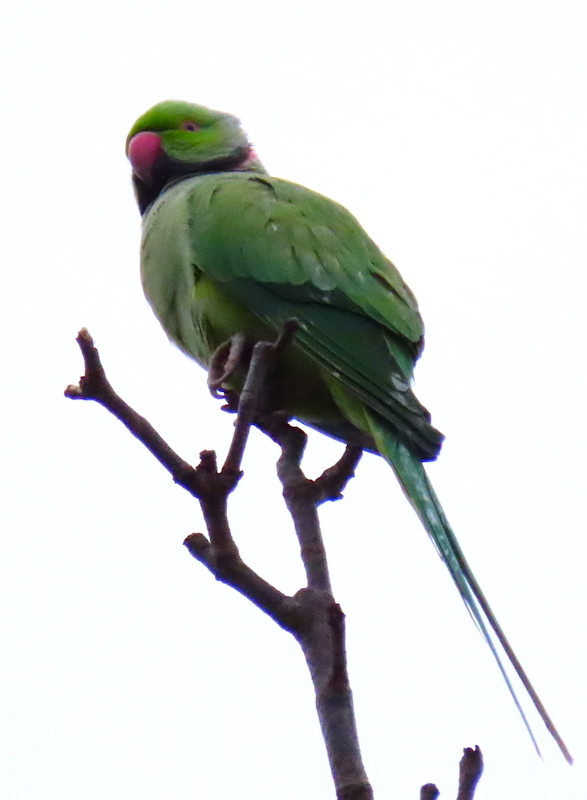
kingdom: Animalia
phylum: Chordata
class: Aves
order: Psittaciformes
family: Psittacidae
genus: Psittacula
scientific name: Psittacula krameri
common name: Rose-ringed parakeet
